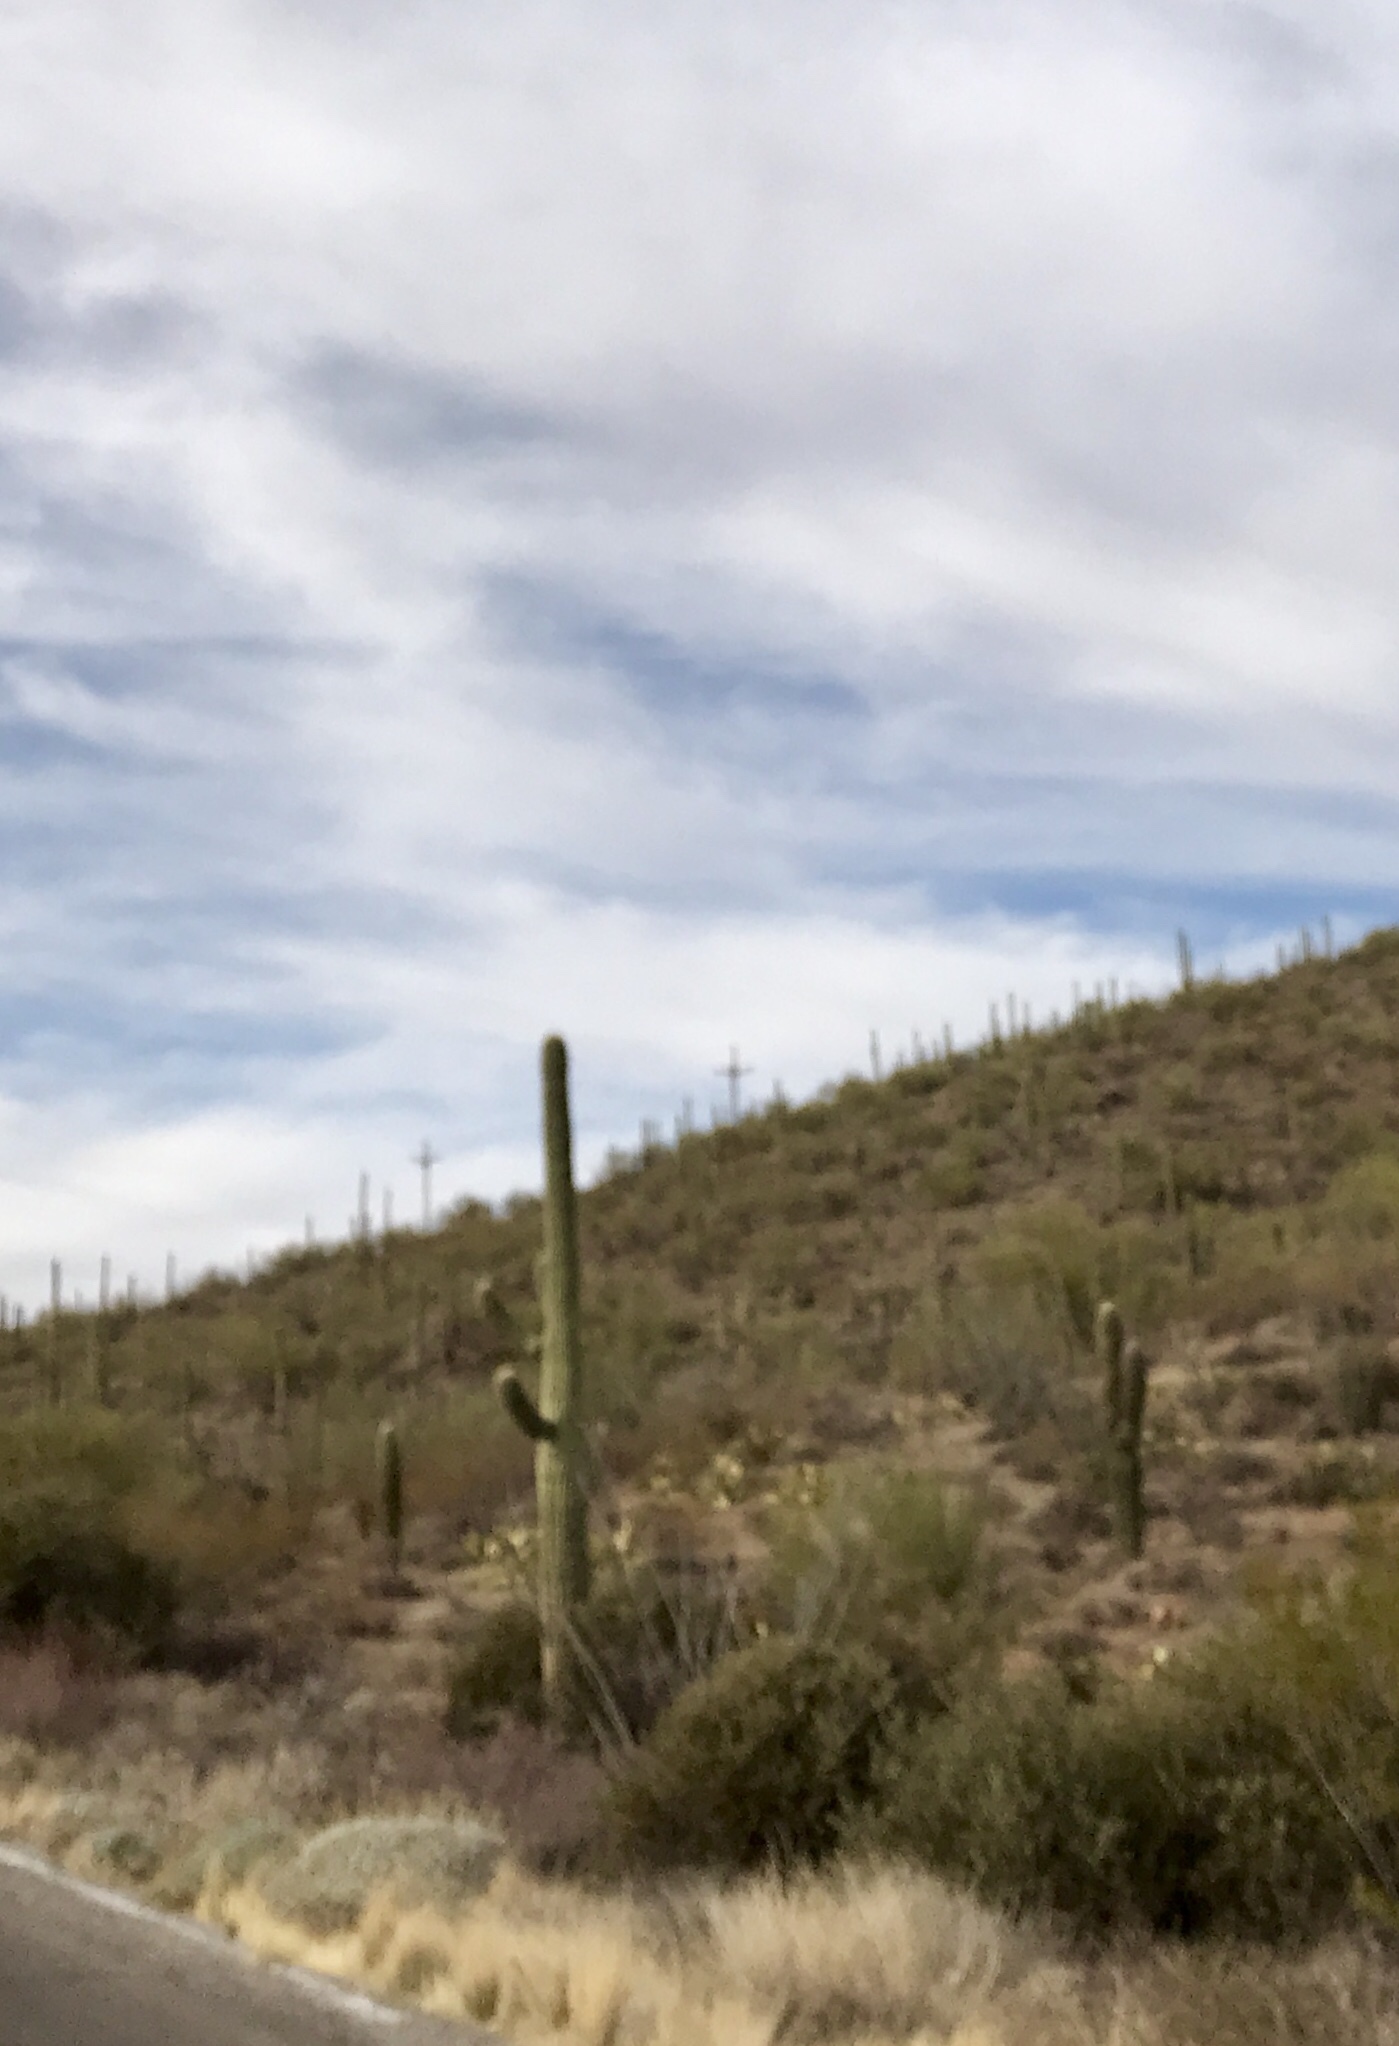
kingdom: Plantae
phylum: Tracheophyta
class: Magnoliopsida
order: Caryophyllales
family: Cactaceae
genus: Carnegiea
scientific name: Carnegiea gigantea
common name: Saguaro
